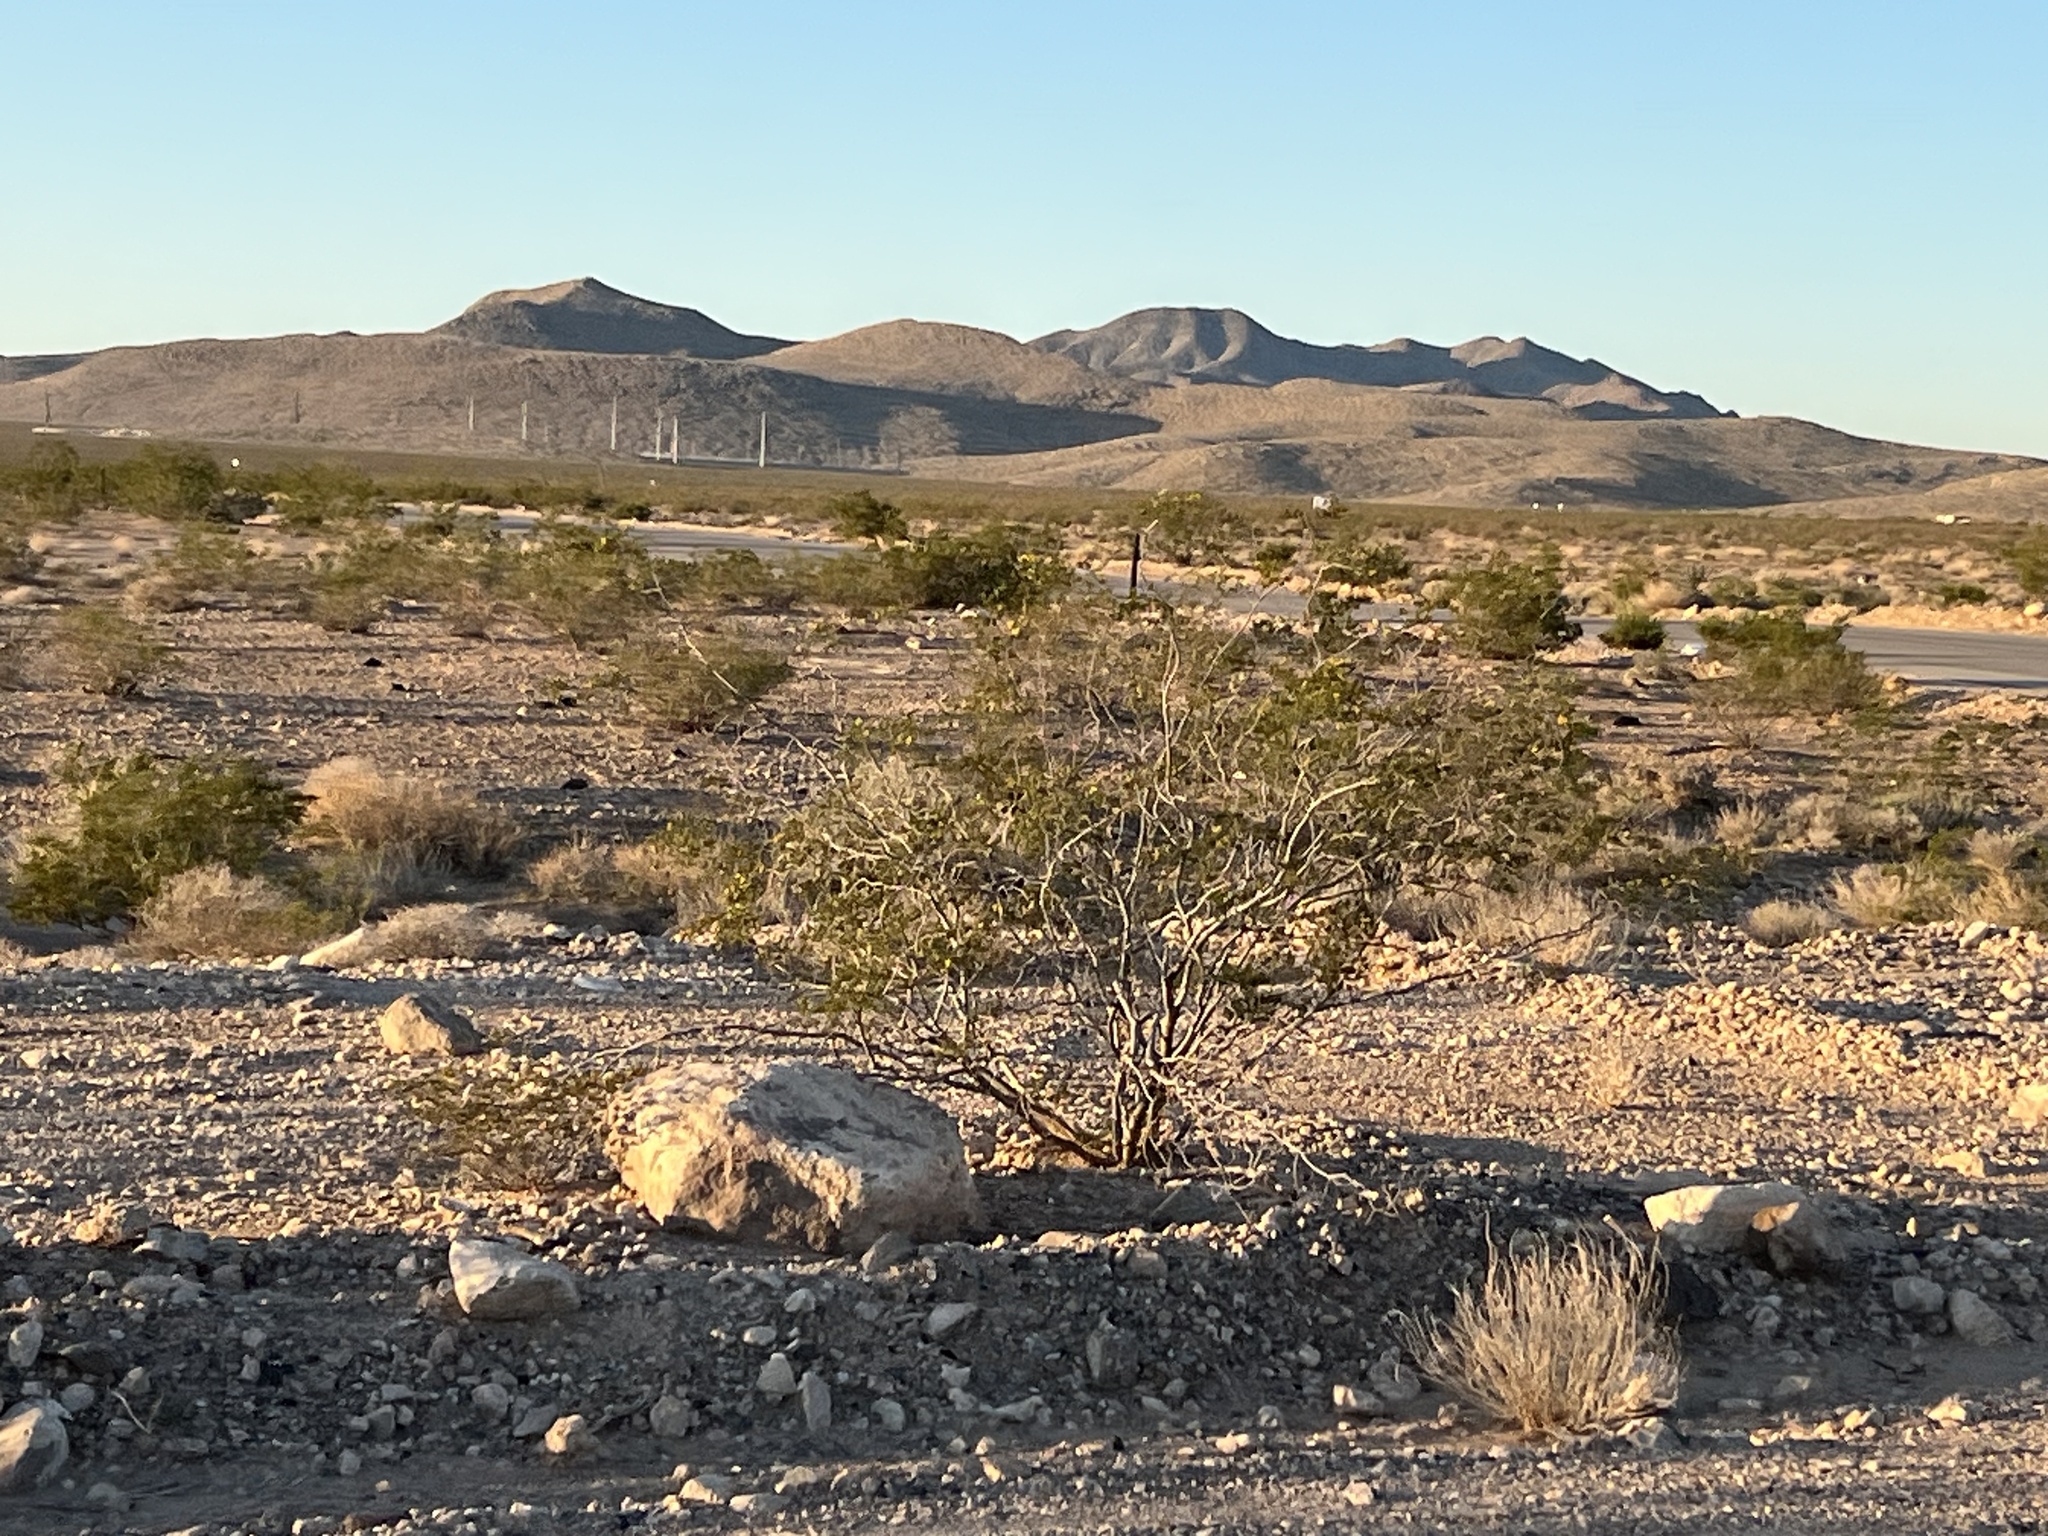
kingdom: Plantae
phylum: Tracheophyta
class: Magnoliopsida
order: Zygophyllales
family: Zygophyllaceae
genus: Larrea
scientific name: Larrea tridentata
